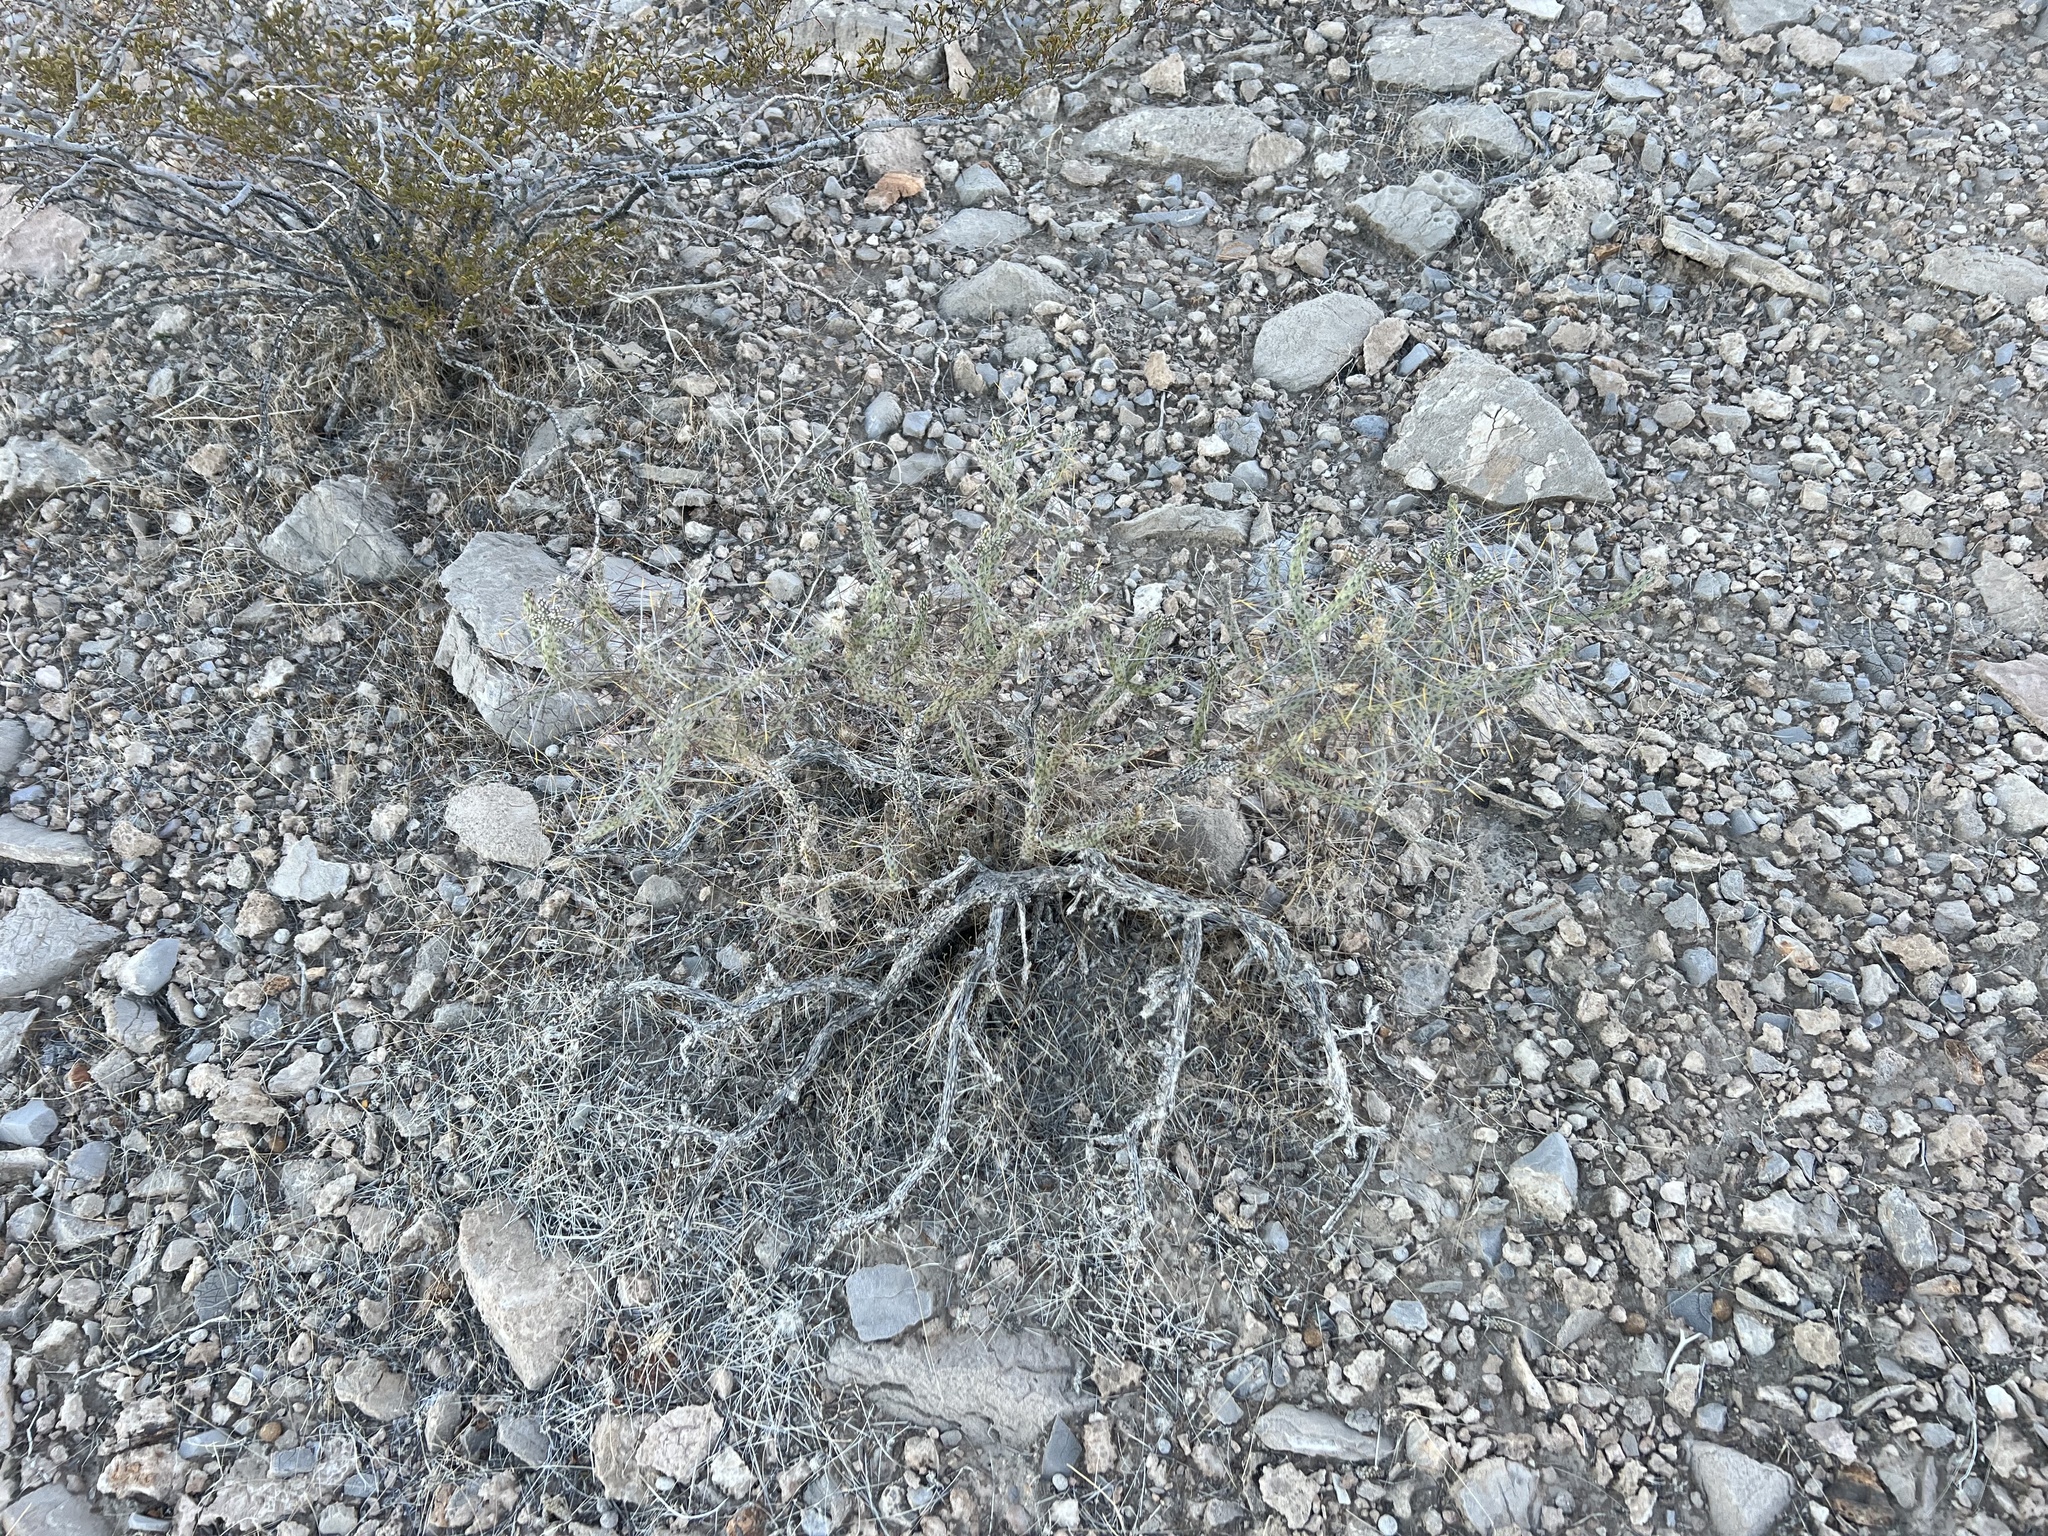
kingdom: Plantae
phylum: Tracheophyta
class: Magnoliopsida
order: Caryophyllales
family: Cactaceae
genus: Cylindropuntia
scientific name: Cylindropuntia ramosissima
